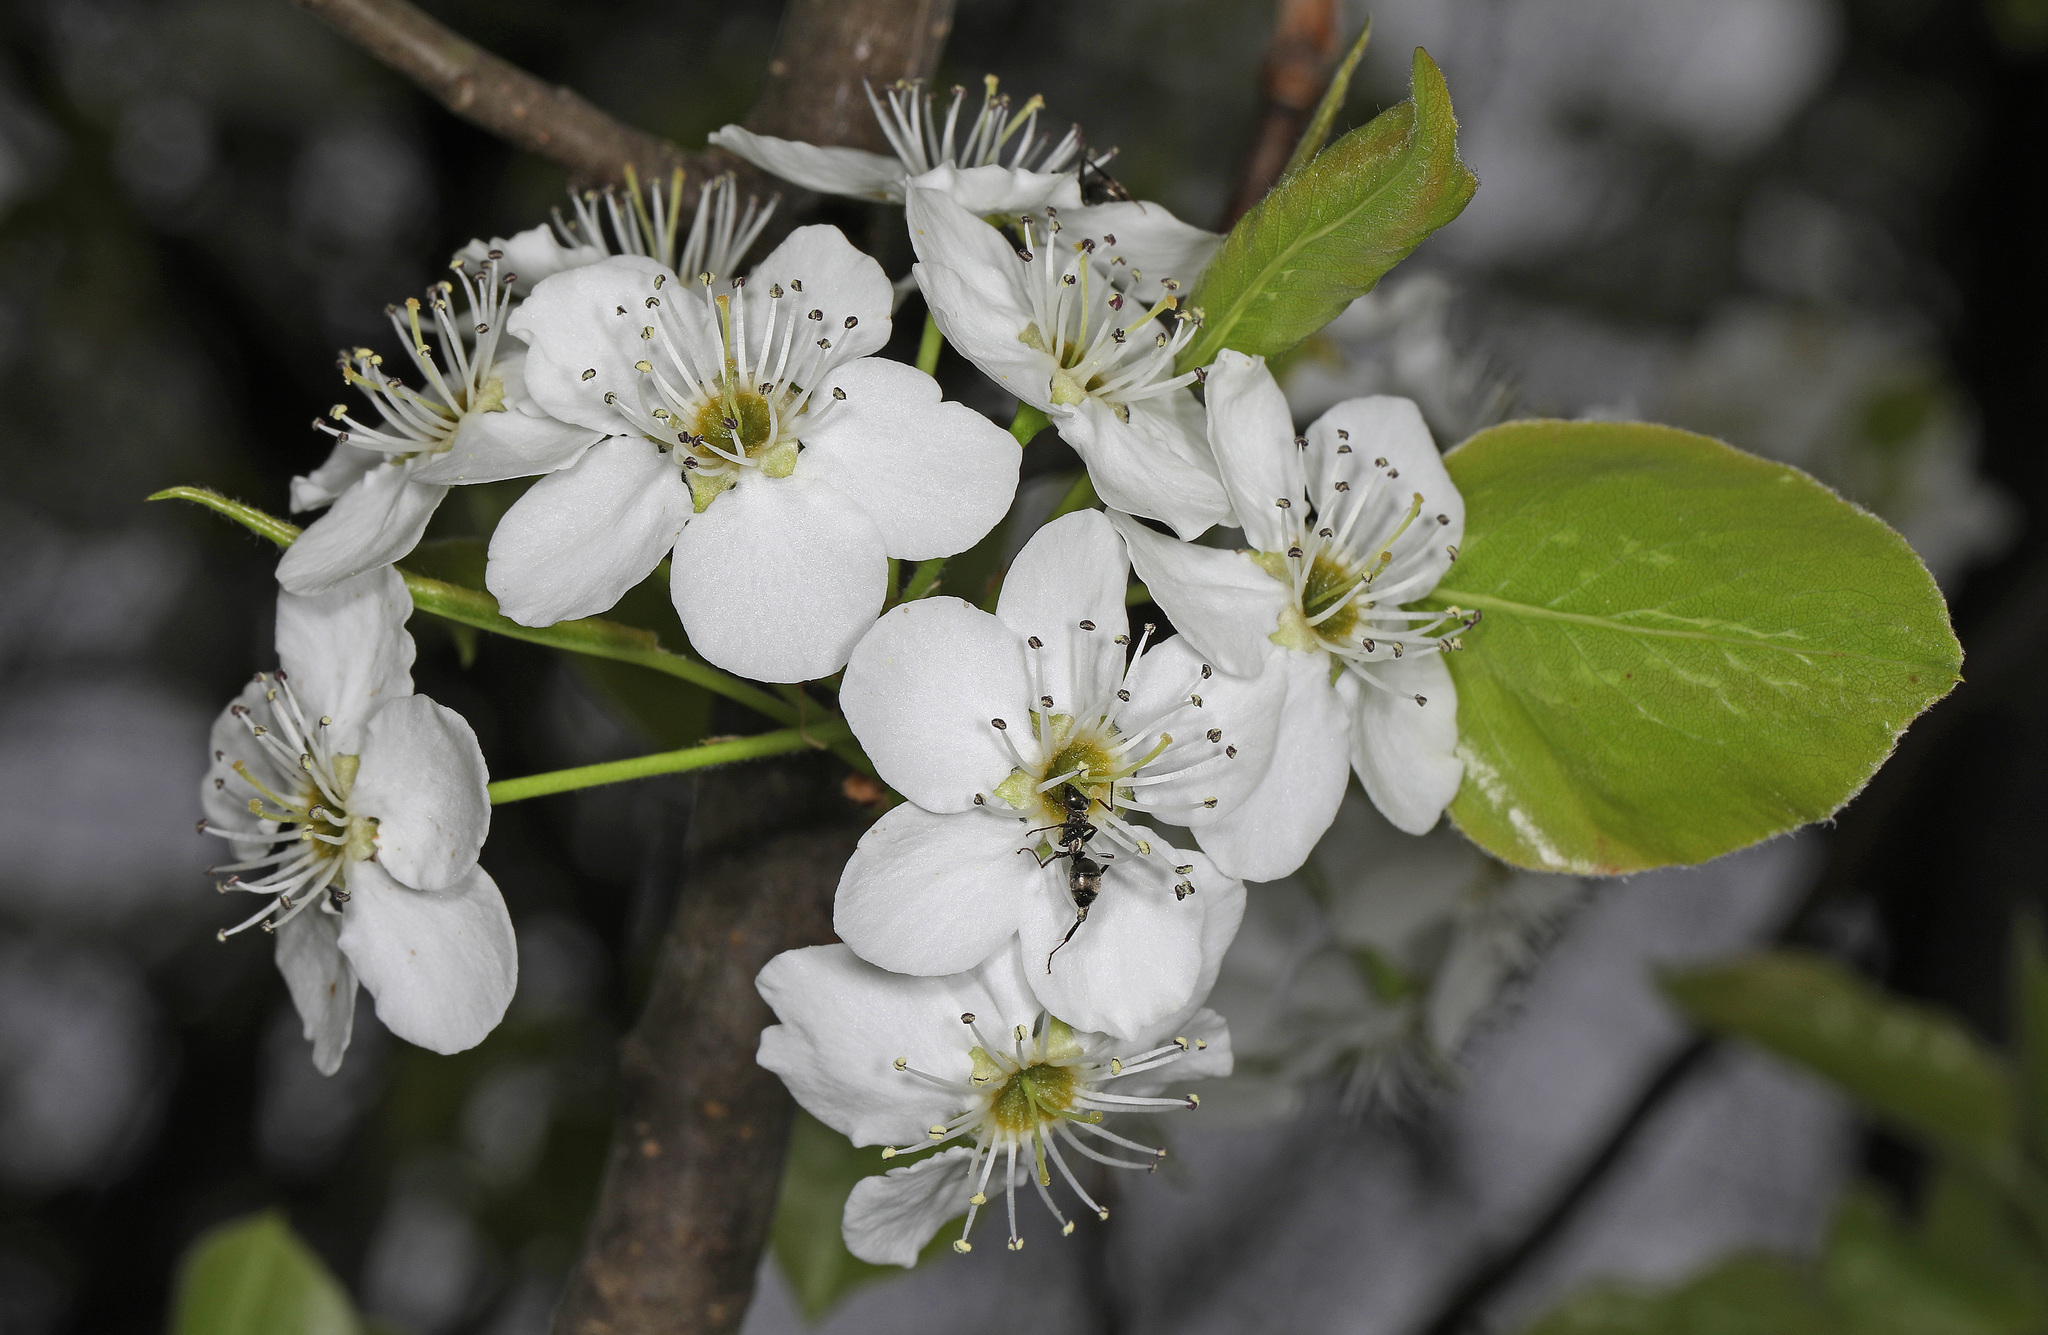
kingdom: Plantae
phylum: Tracheophyta
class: Magnoliopsida
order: Rosales
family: Rosaceae
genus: Pyrus
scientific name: Pyrus calleryana
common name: Callery pear
